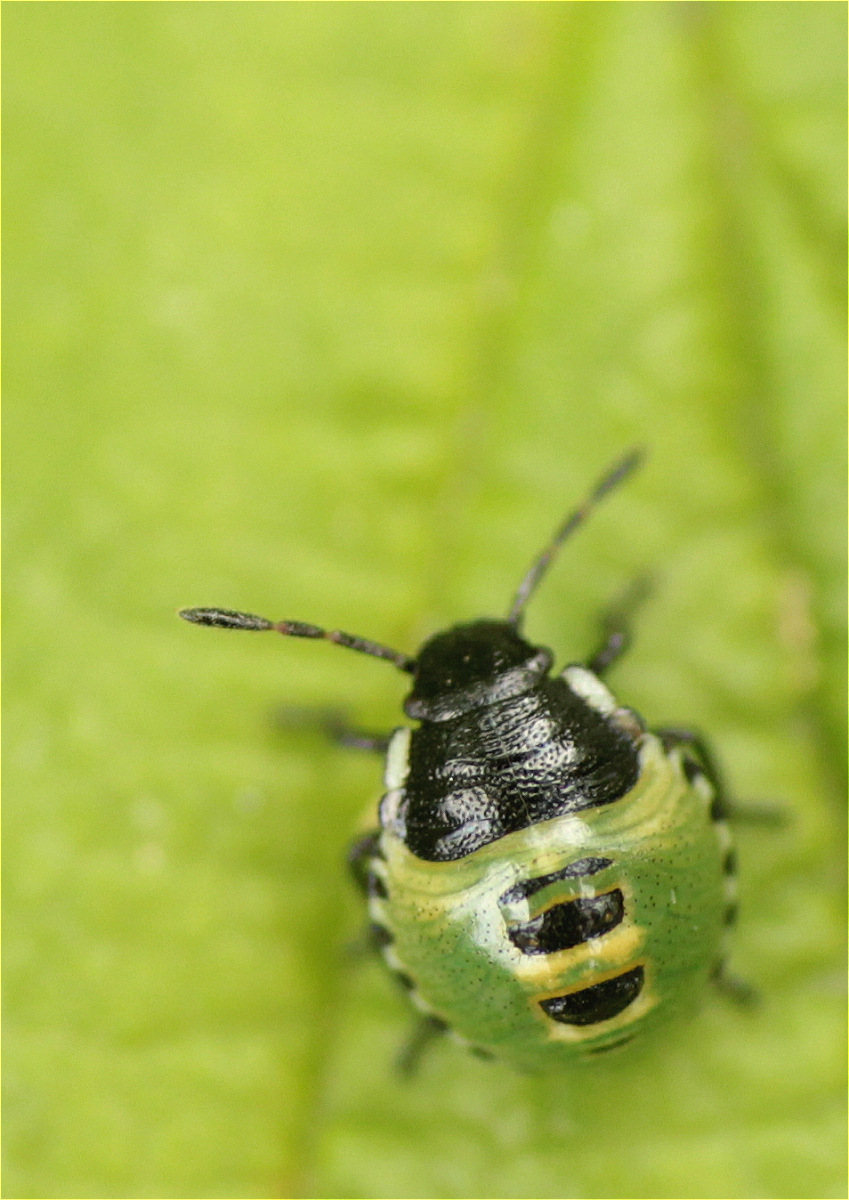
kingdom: Animalia
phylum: Arthropoda
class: Insecta
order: Hemiptera
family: Pentatomidae
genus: Palomena
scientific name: Palomena prasina
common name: Green shieldbug
